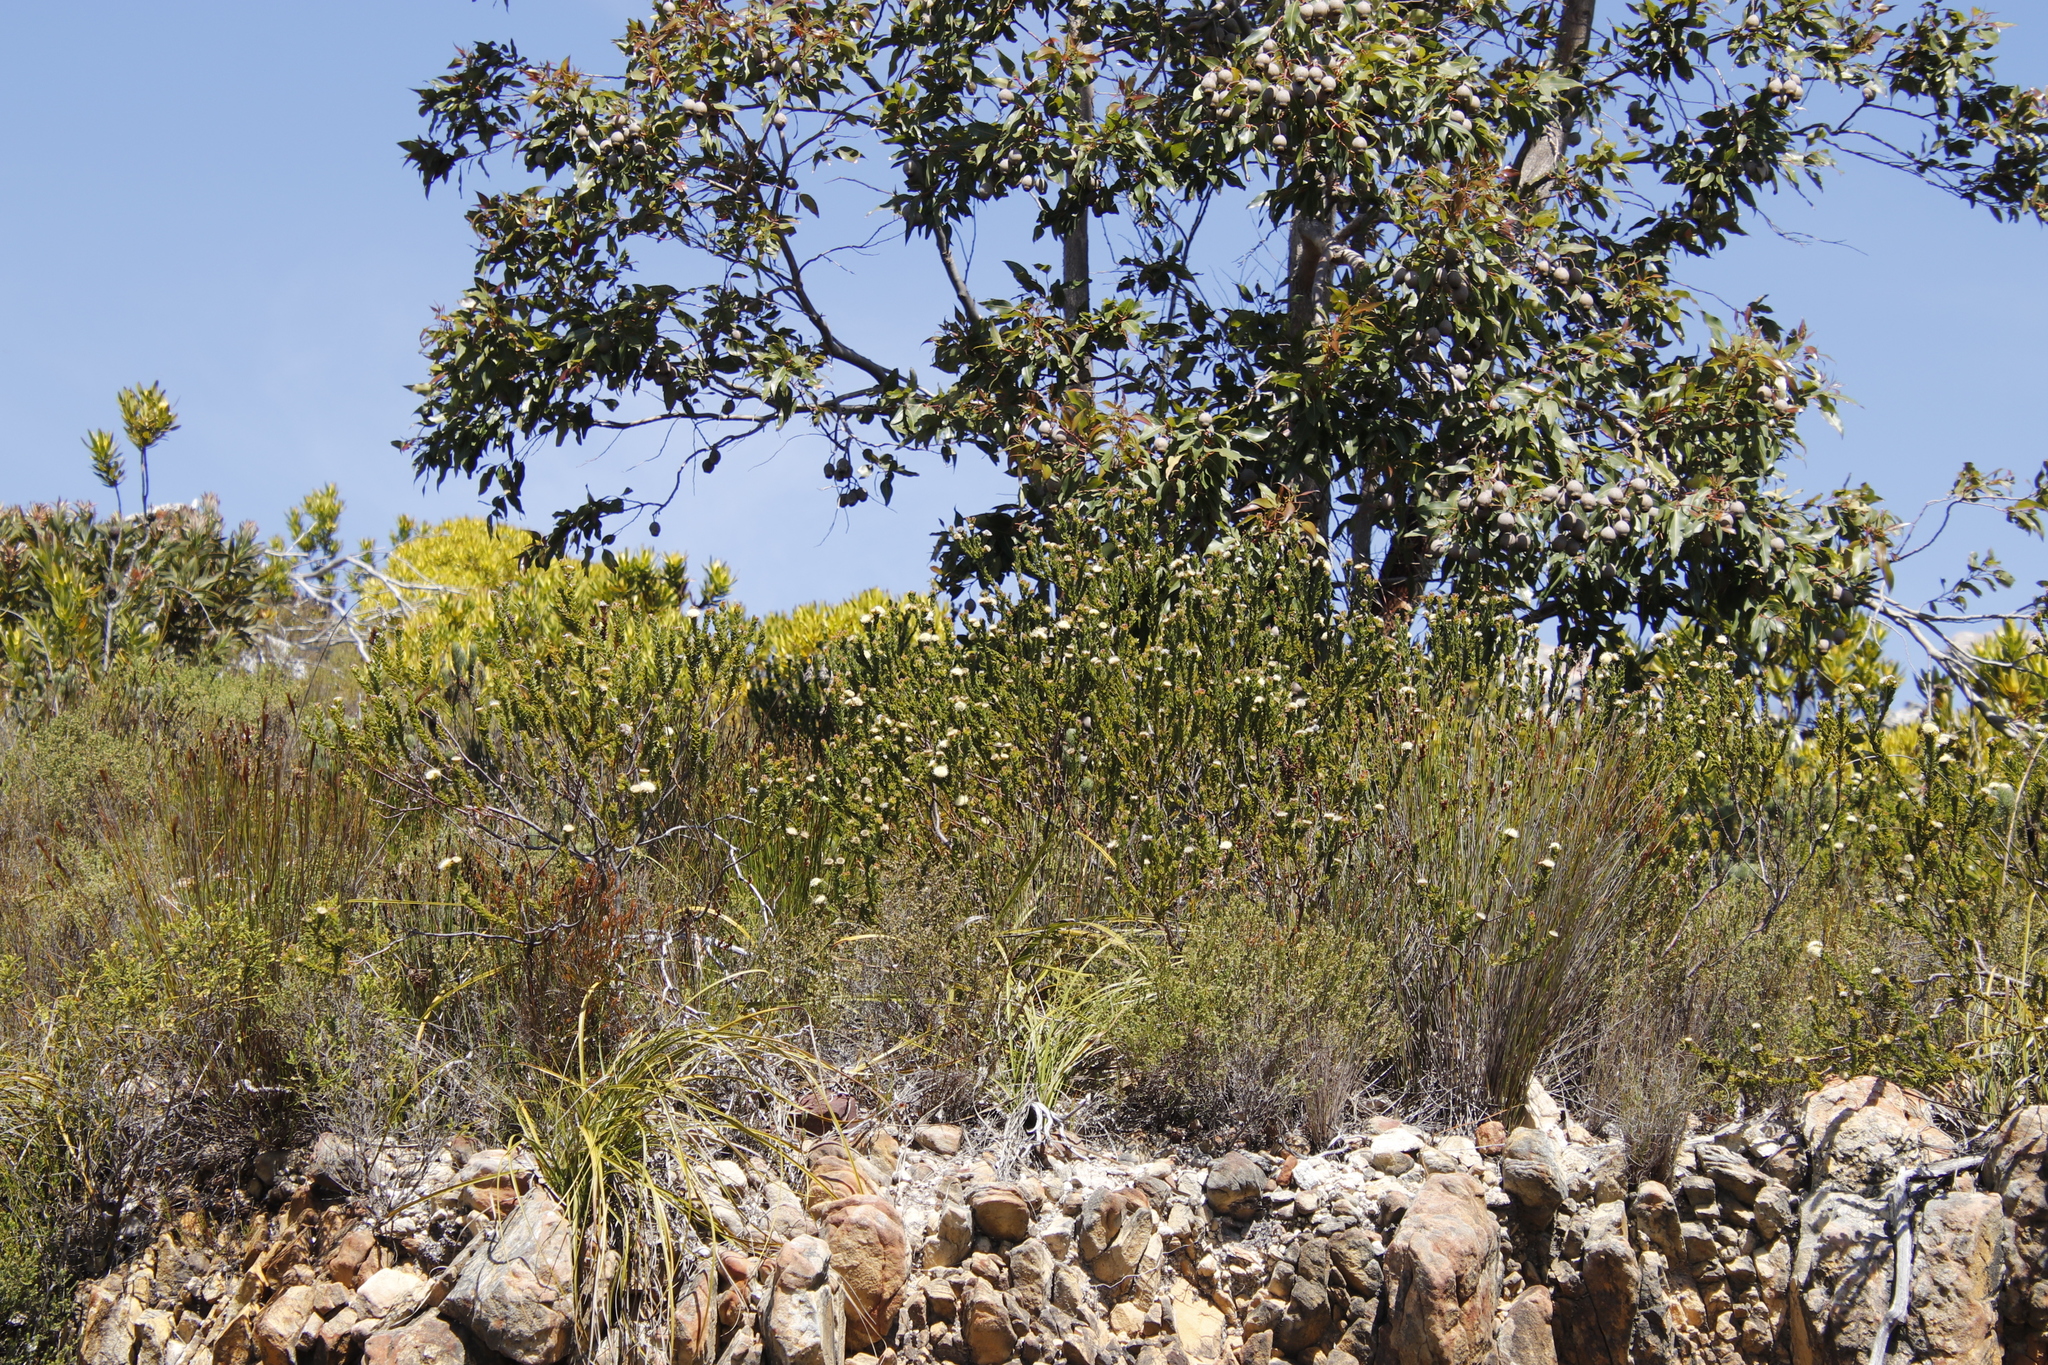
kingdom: Plantae
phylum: Tracheophyta
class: Magnoliopsida
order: Proteales
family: Proteaceae
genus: Diastella
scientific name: Diastella thymelaeoides
